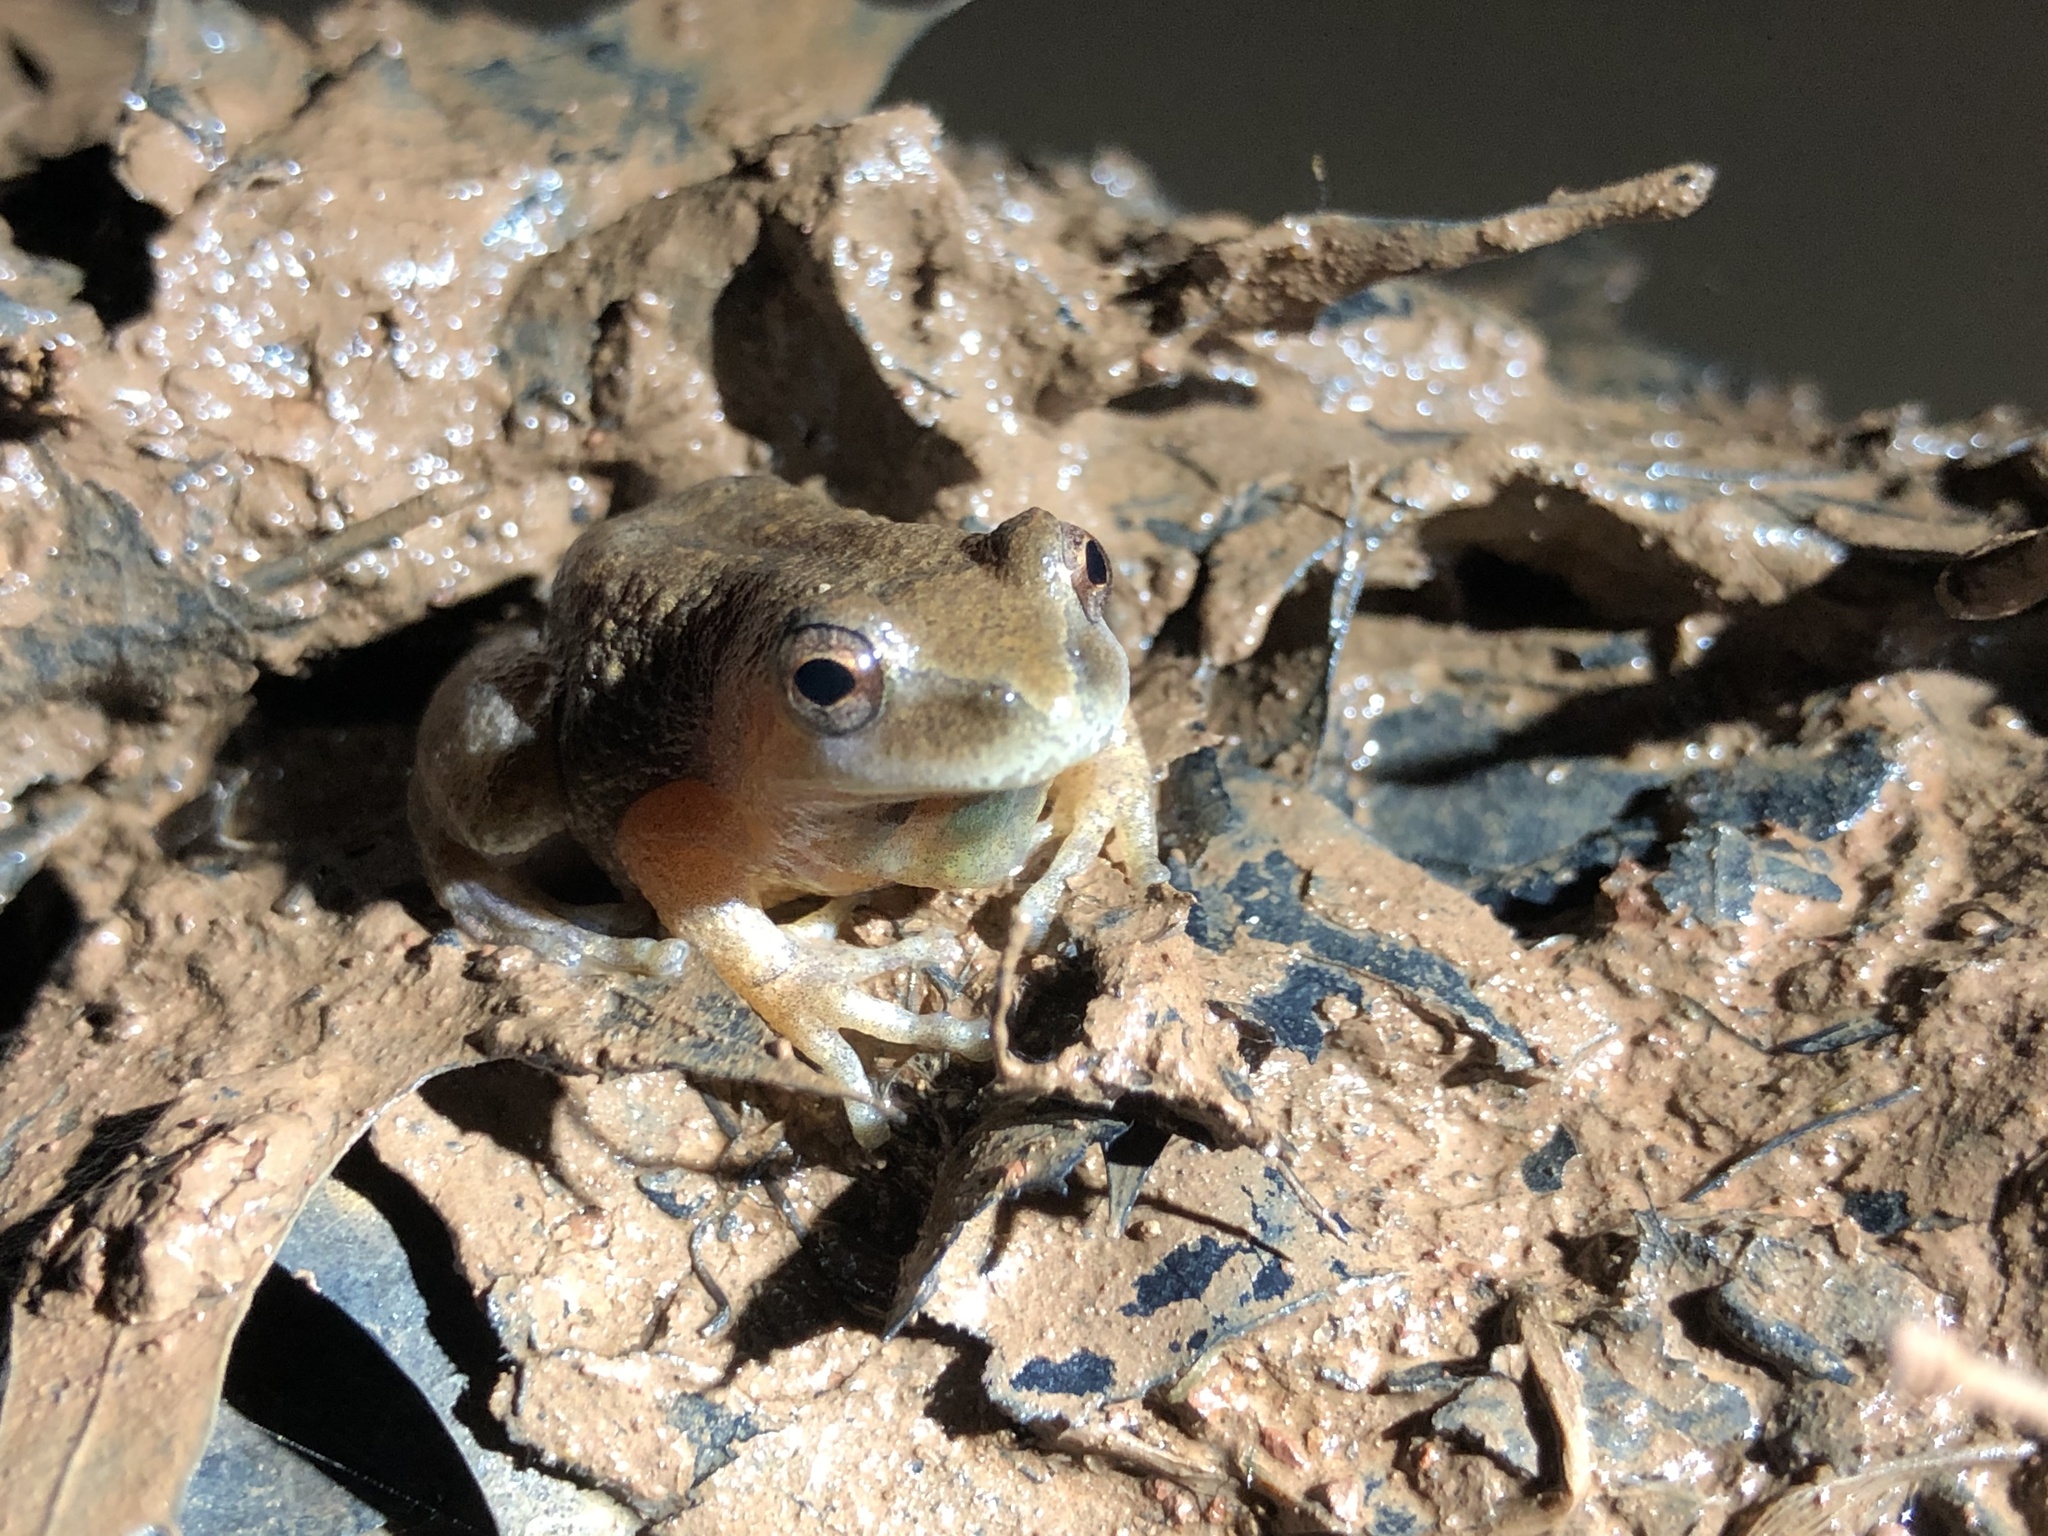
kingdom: Animalia
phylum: Chordata
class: Amphibia
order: Anura
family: Hylidae
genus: Pseudacris
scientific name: Pseudacris crucifer
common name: Spring peeper
